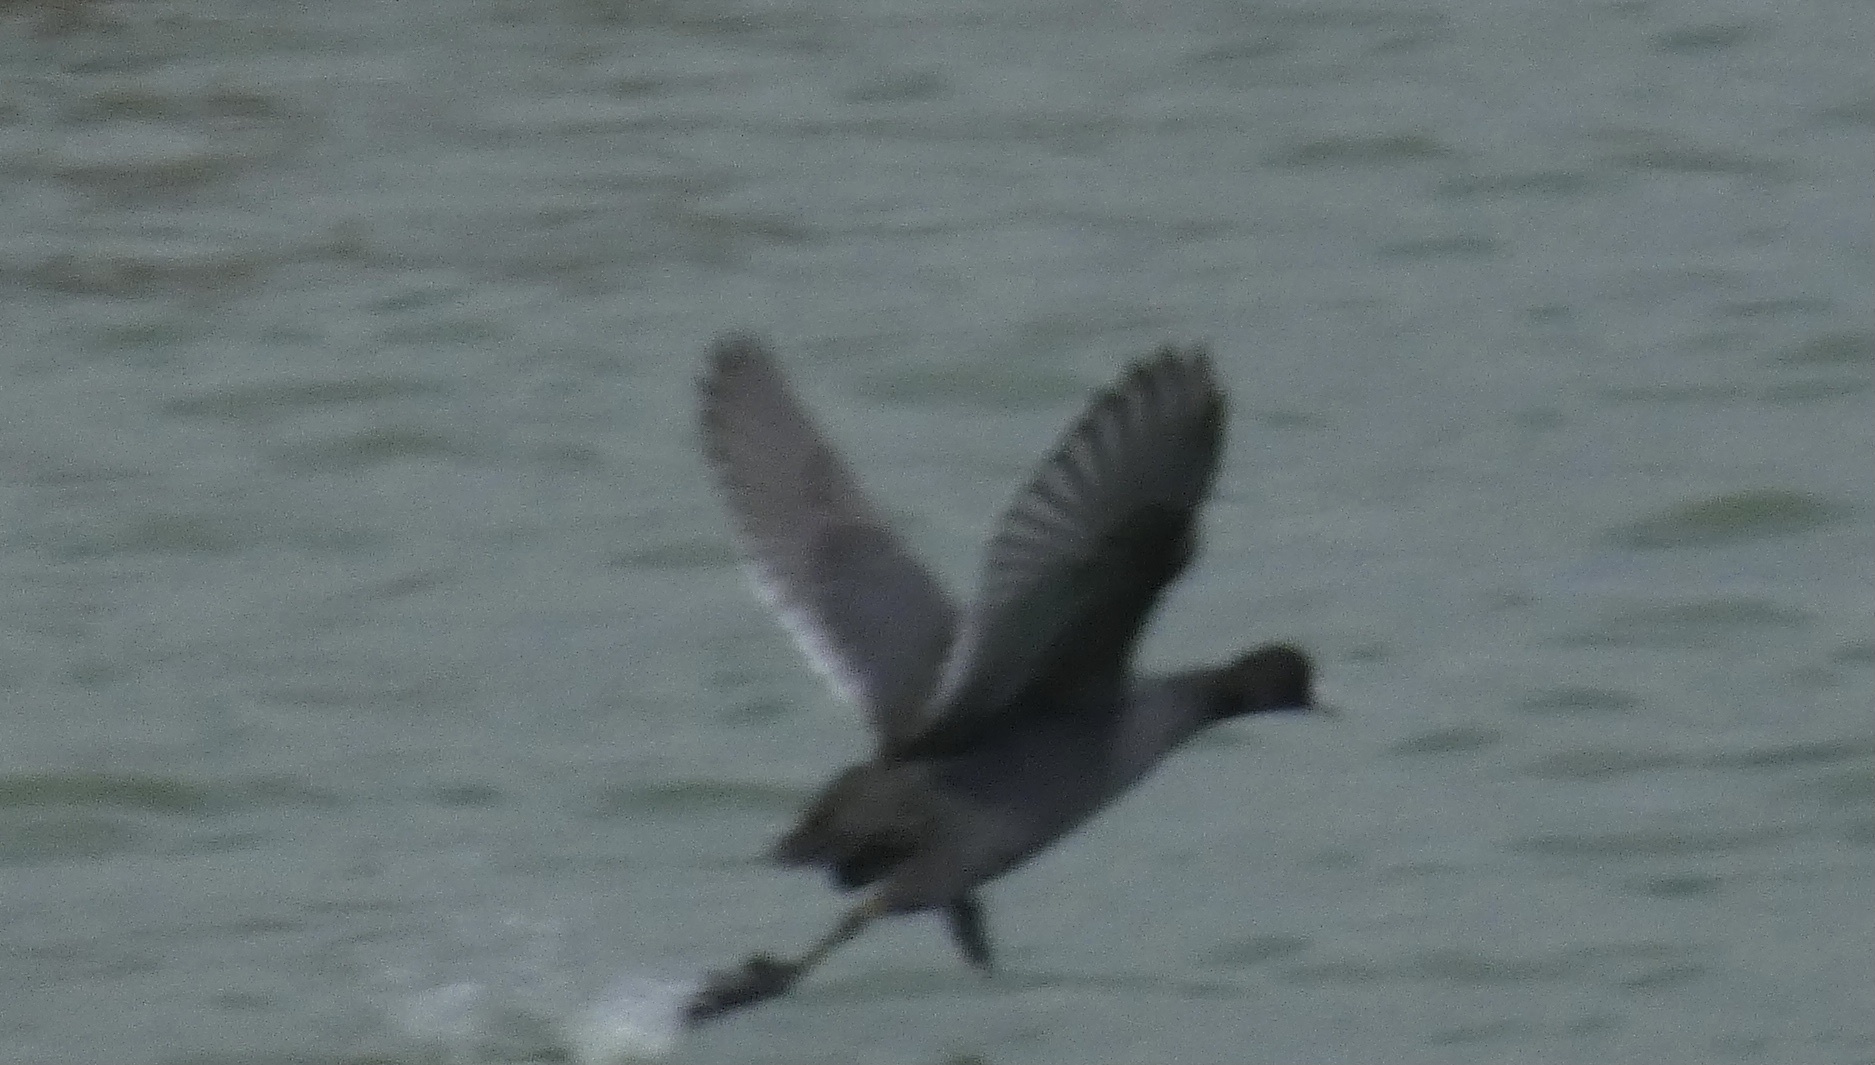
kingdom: Animalia
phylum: Chordata
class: Aves
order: Gruiformes
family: Rallidae
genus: Fulica
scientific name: Fulica americana
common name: American coot
